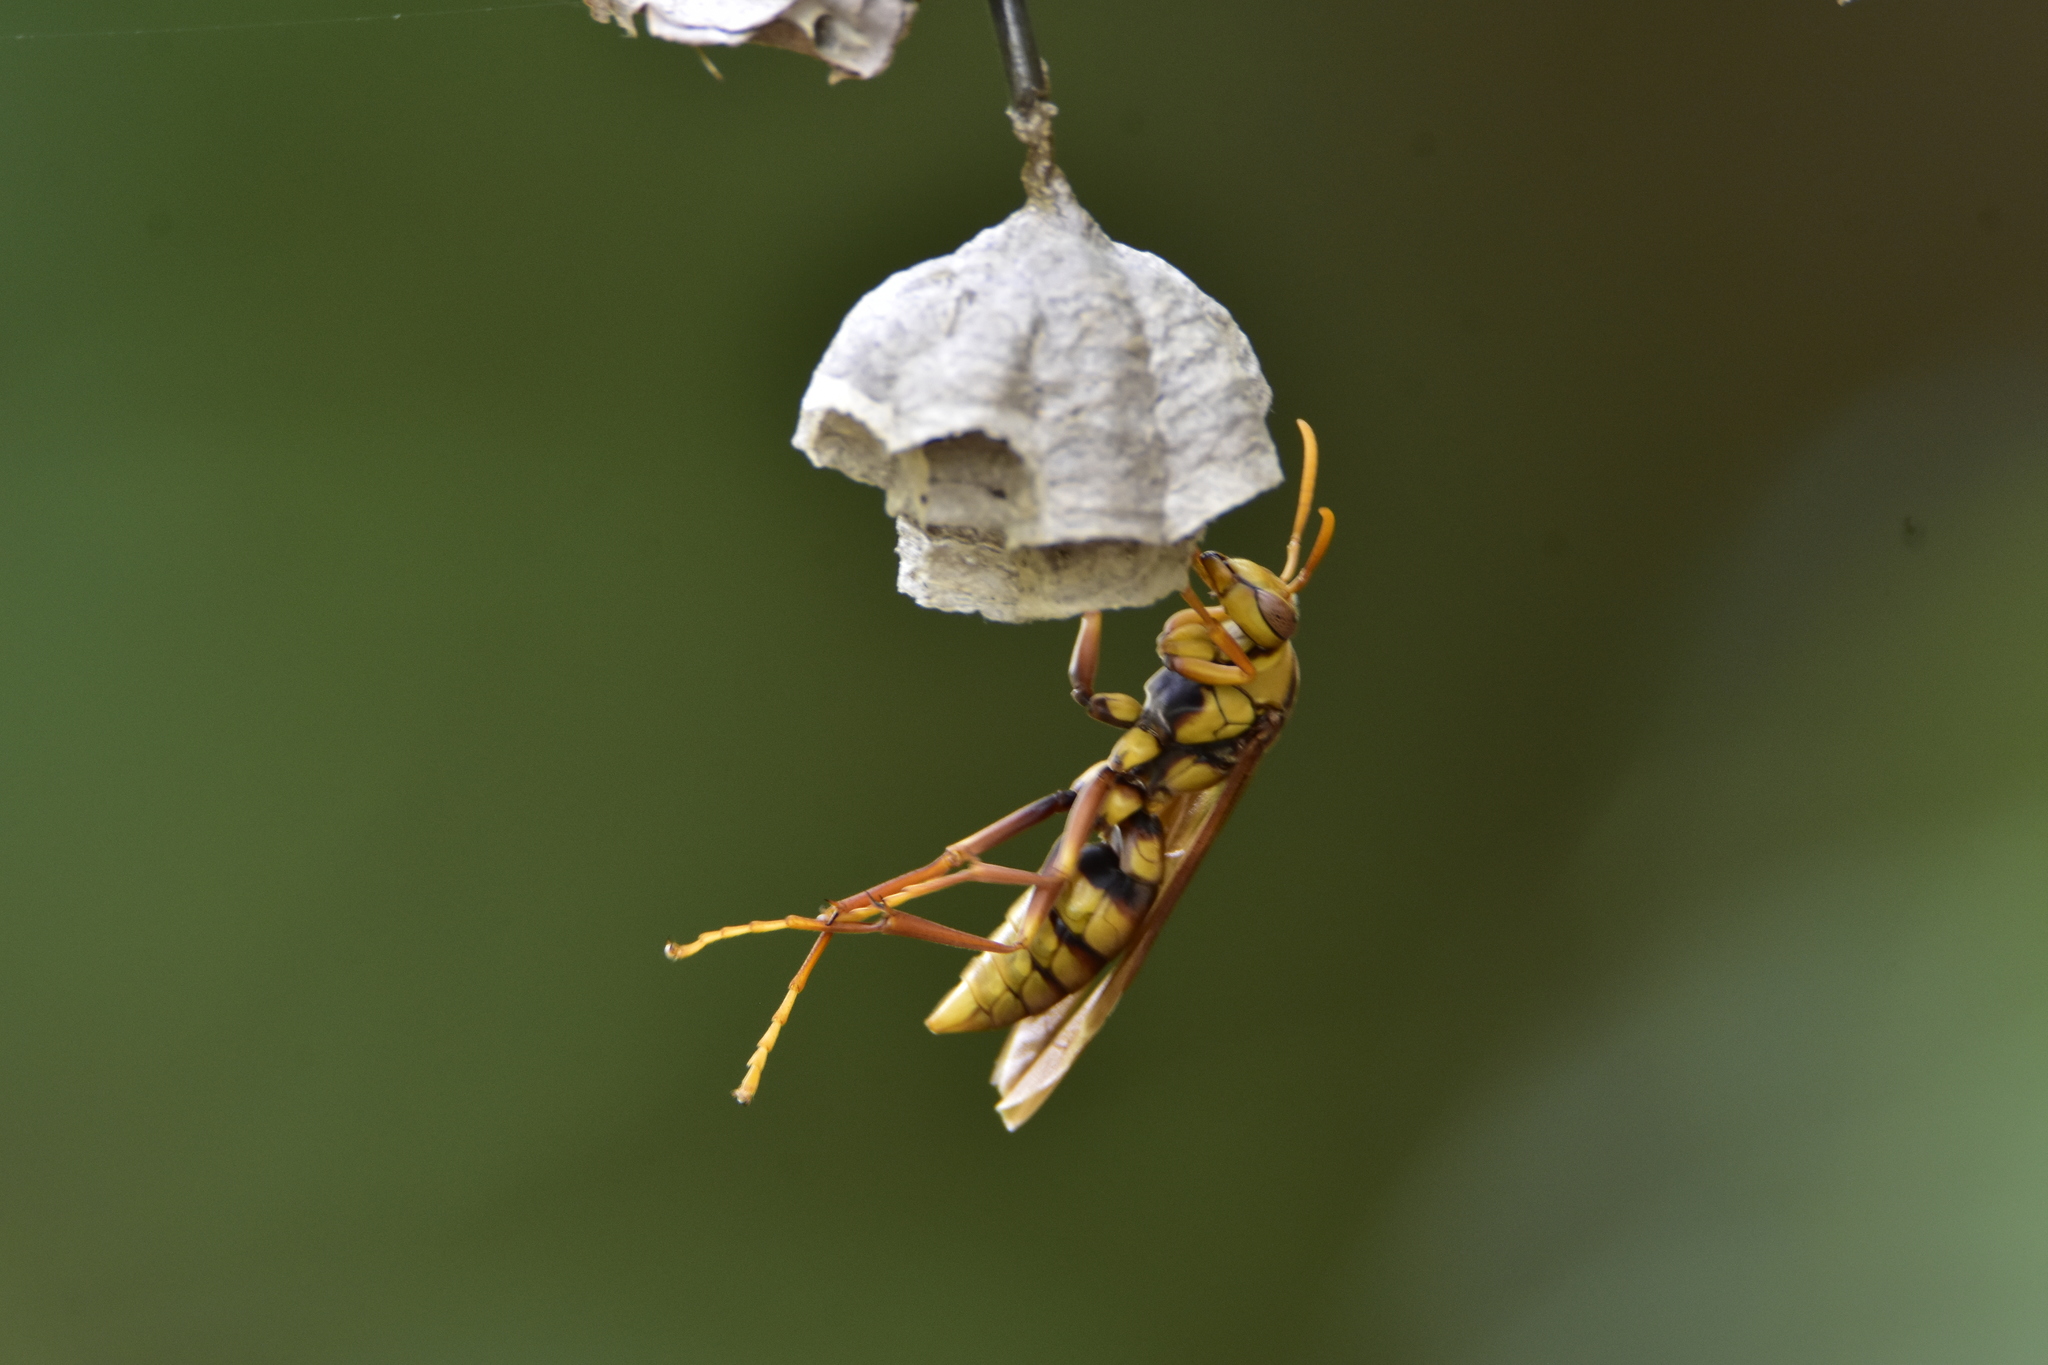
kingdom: Animalia
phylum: Arthropoda
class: Insecta
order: Hymenoptera
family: Eumenidae
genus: Polistes
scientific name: Polistes carnifex
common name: Paper wasp
